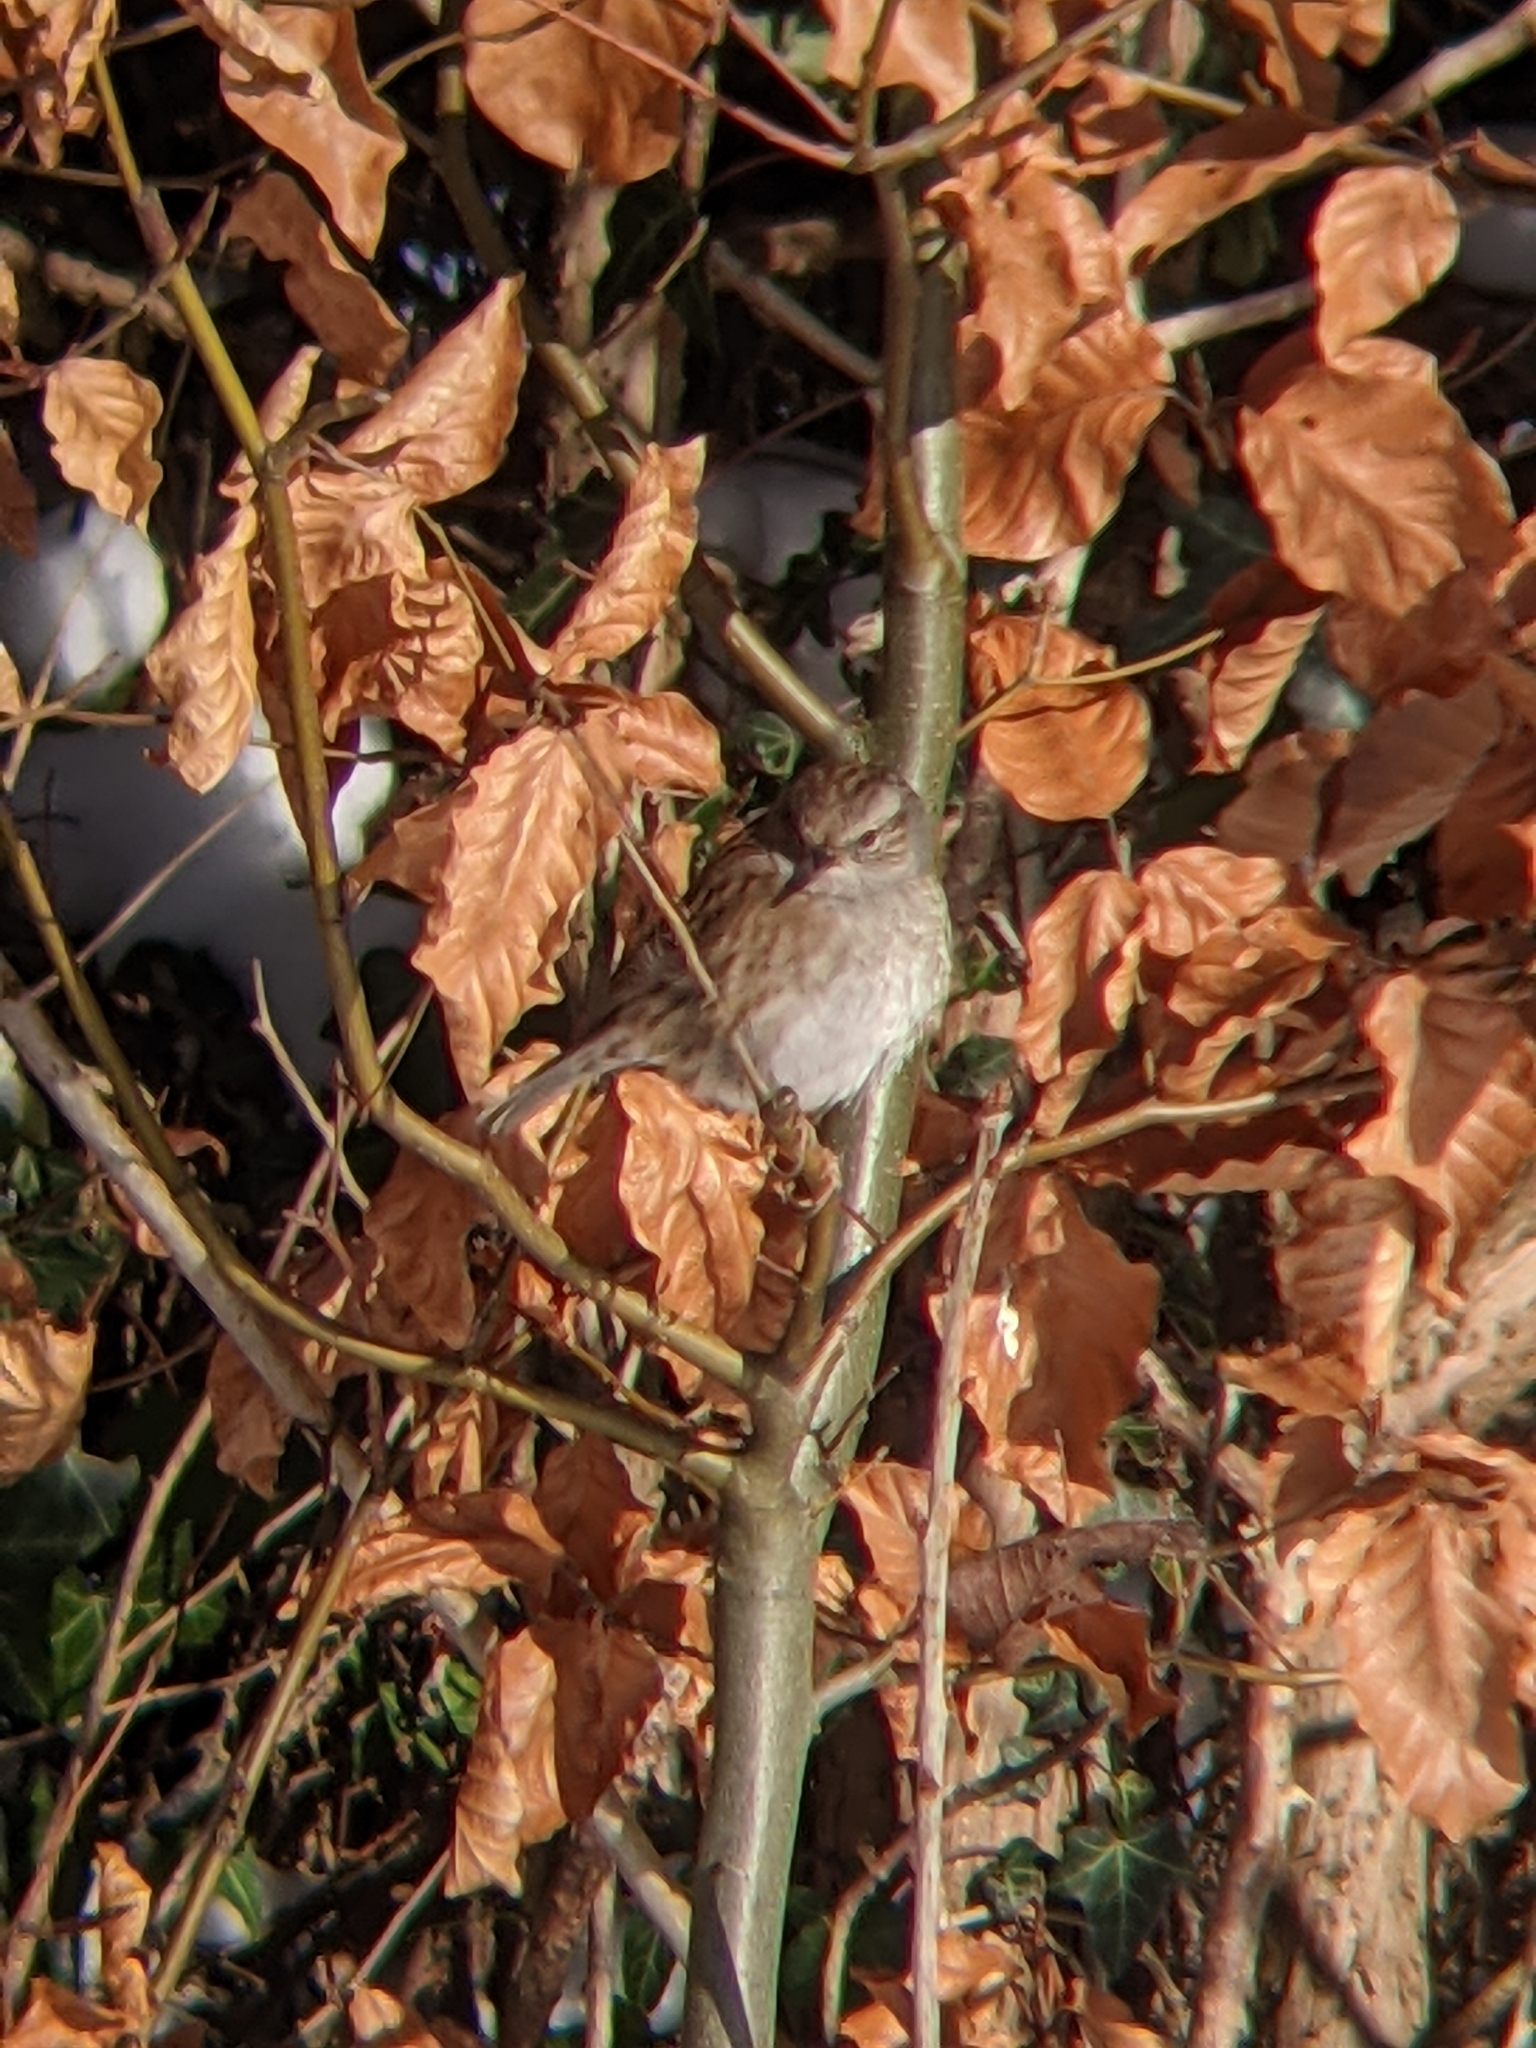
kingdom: Animalia
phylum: Chordata
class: Aves
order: Passeriformes
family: Prunellidae
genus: Prunella
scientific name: Prunella modularis
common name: Dunnock
